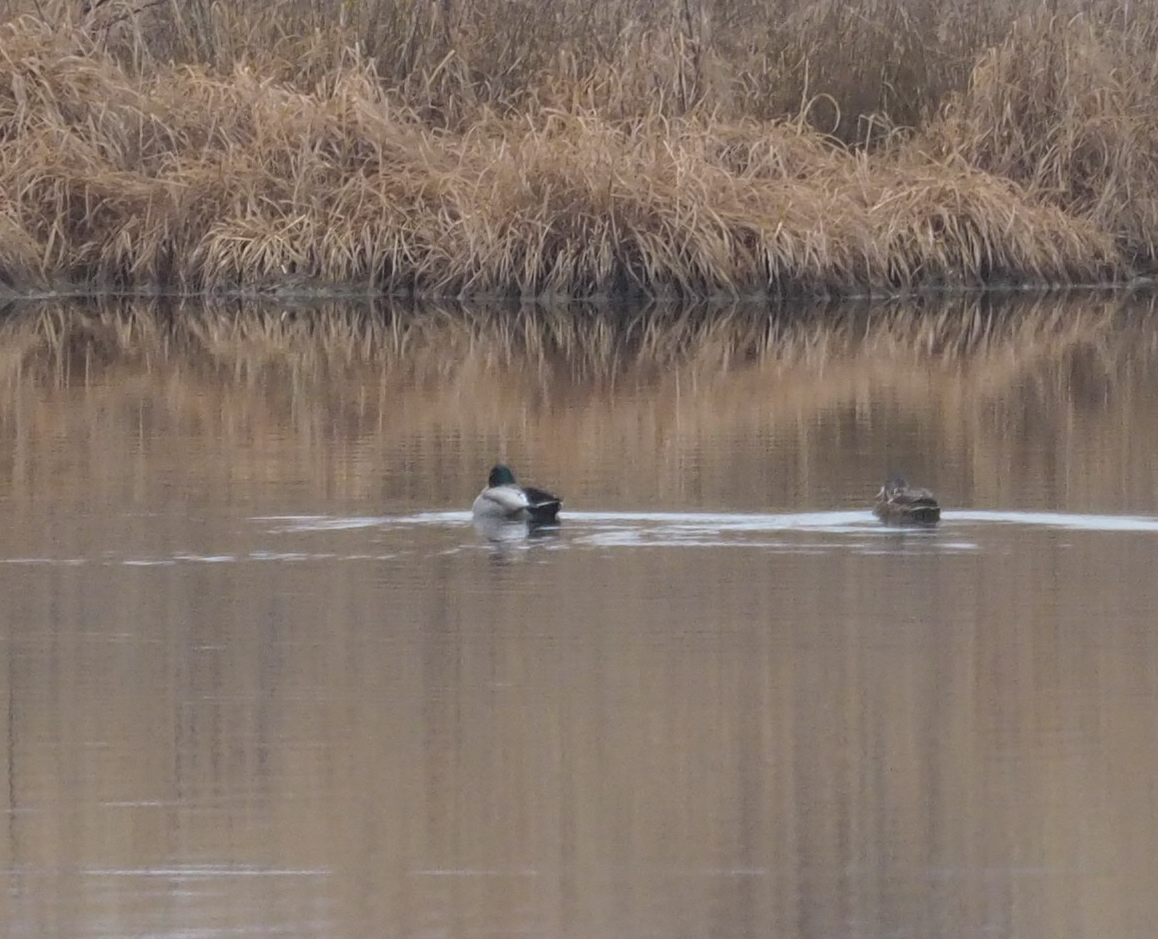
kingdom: Animalia
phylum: Chordata
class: Aves
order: Anseriformes
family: Anatidae
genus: Anas
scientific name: Anas platyrhynchos
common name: Mallard
